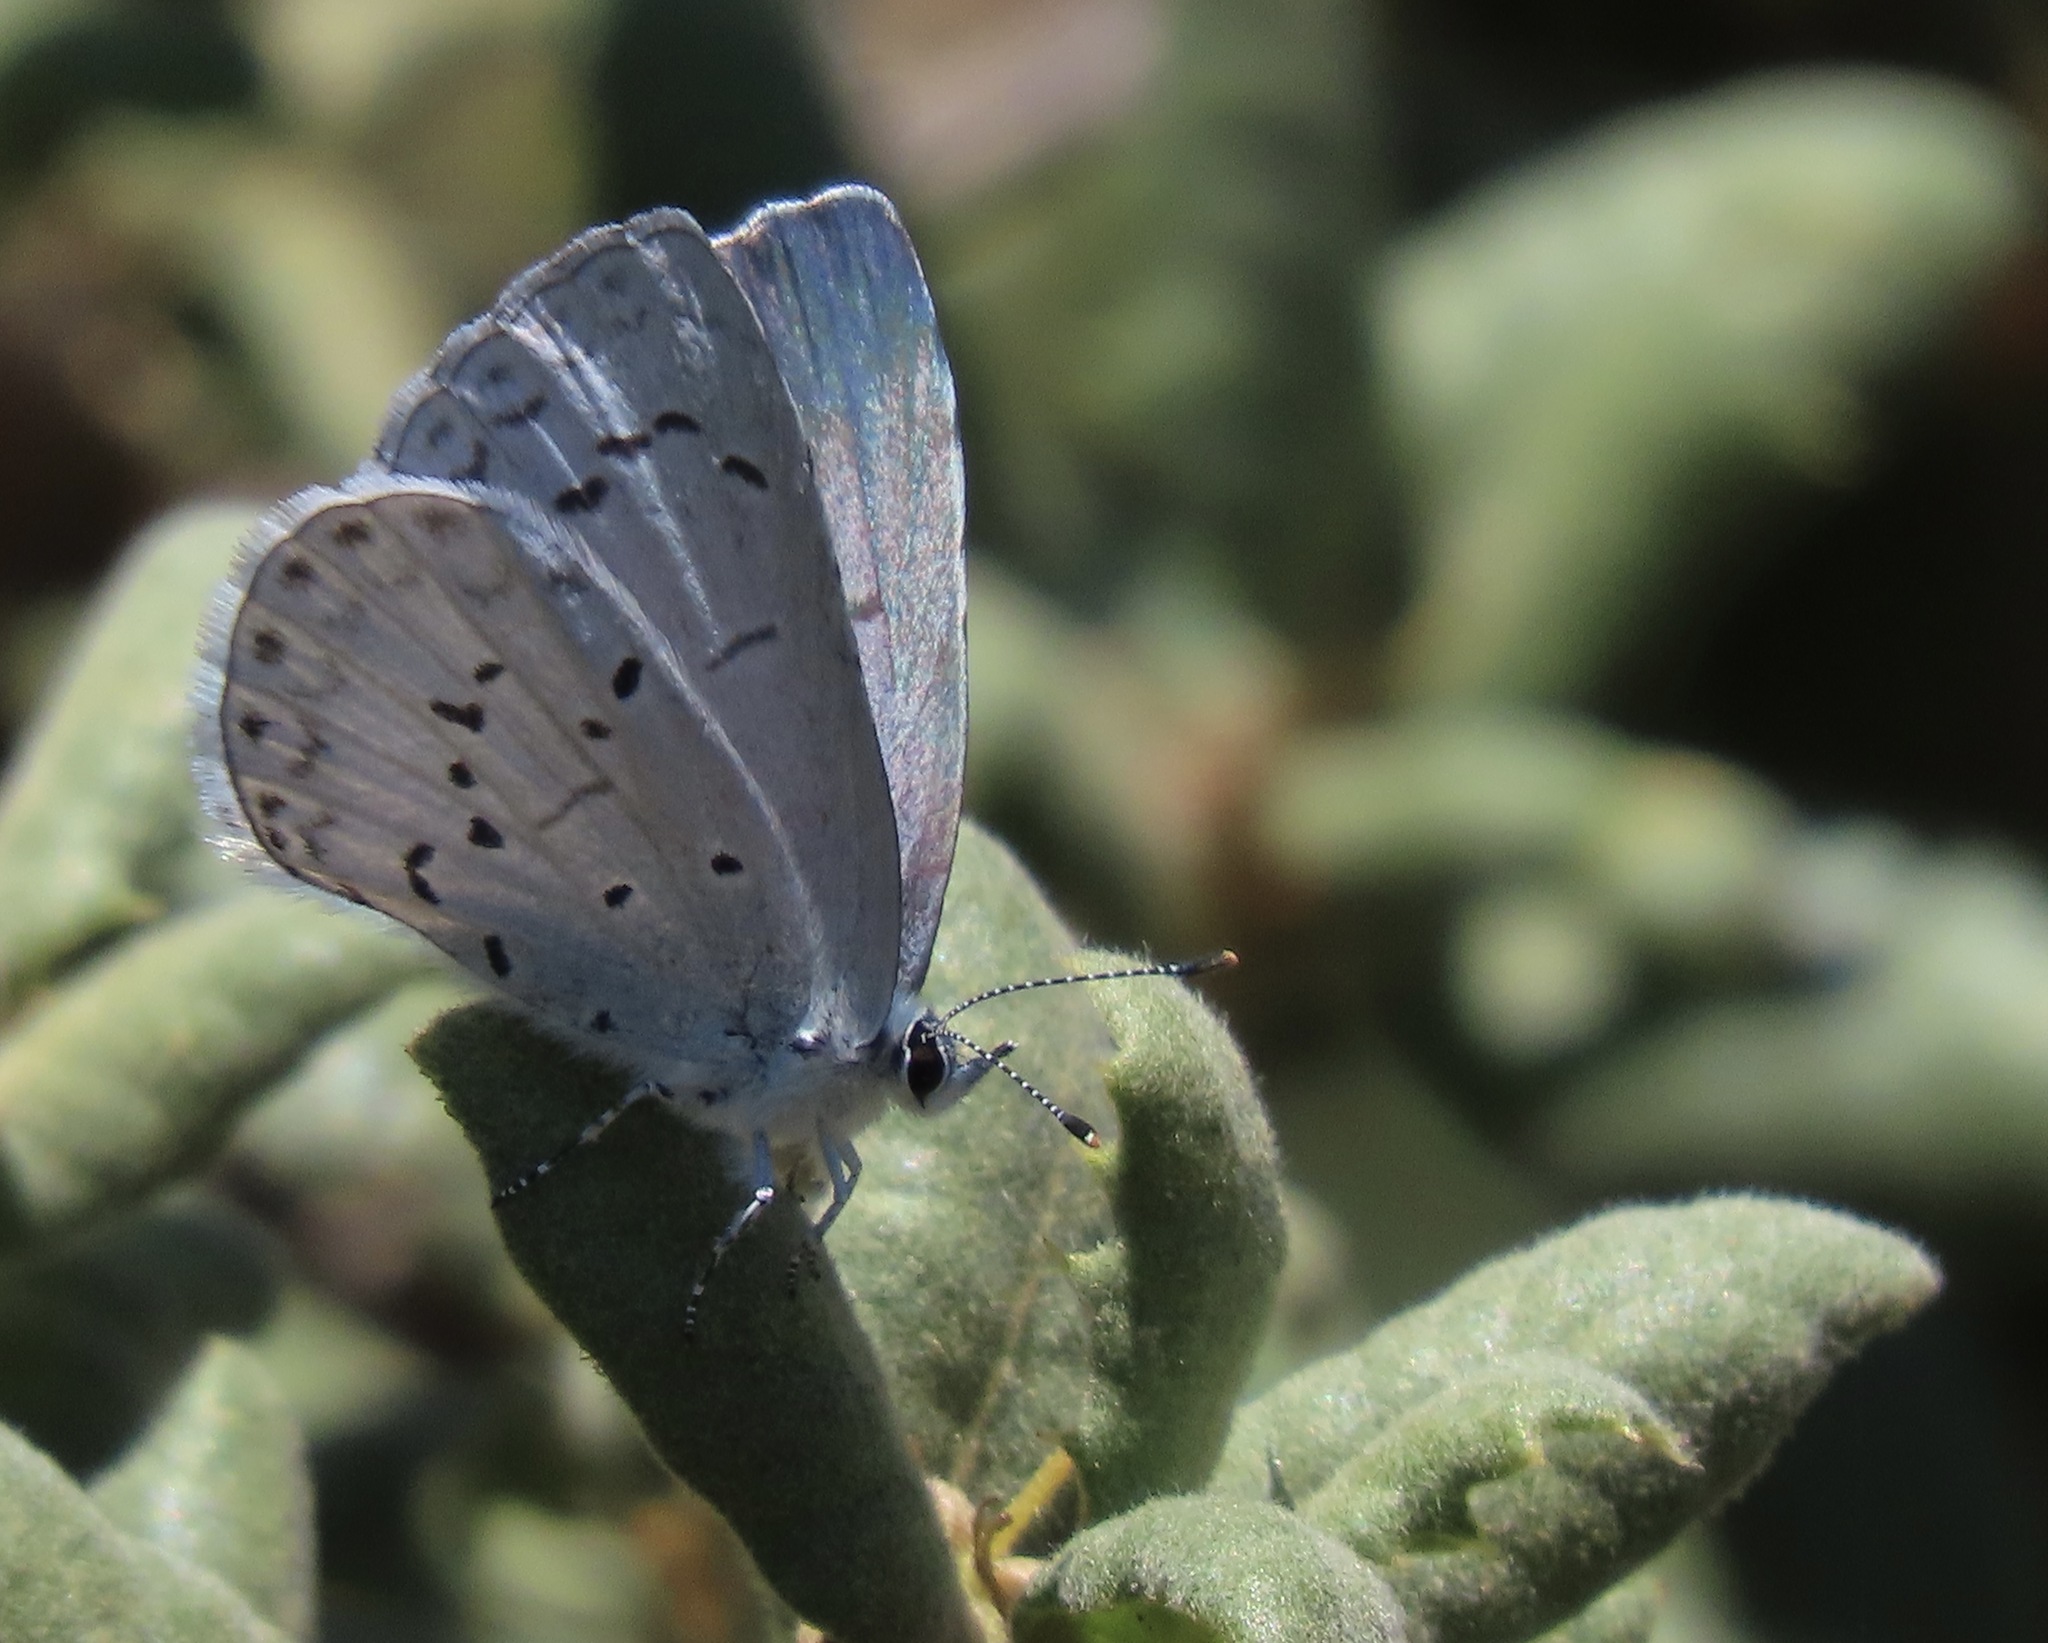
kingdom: Animalia
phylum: Arthropoda
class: Insecta
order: Lepidoptera
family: Lycaenidae
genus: Celastrina
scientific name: Celastrina ladon
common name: Spring azure
